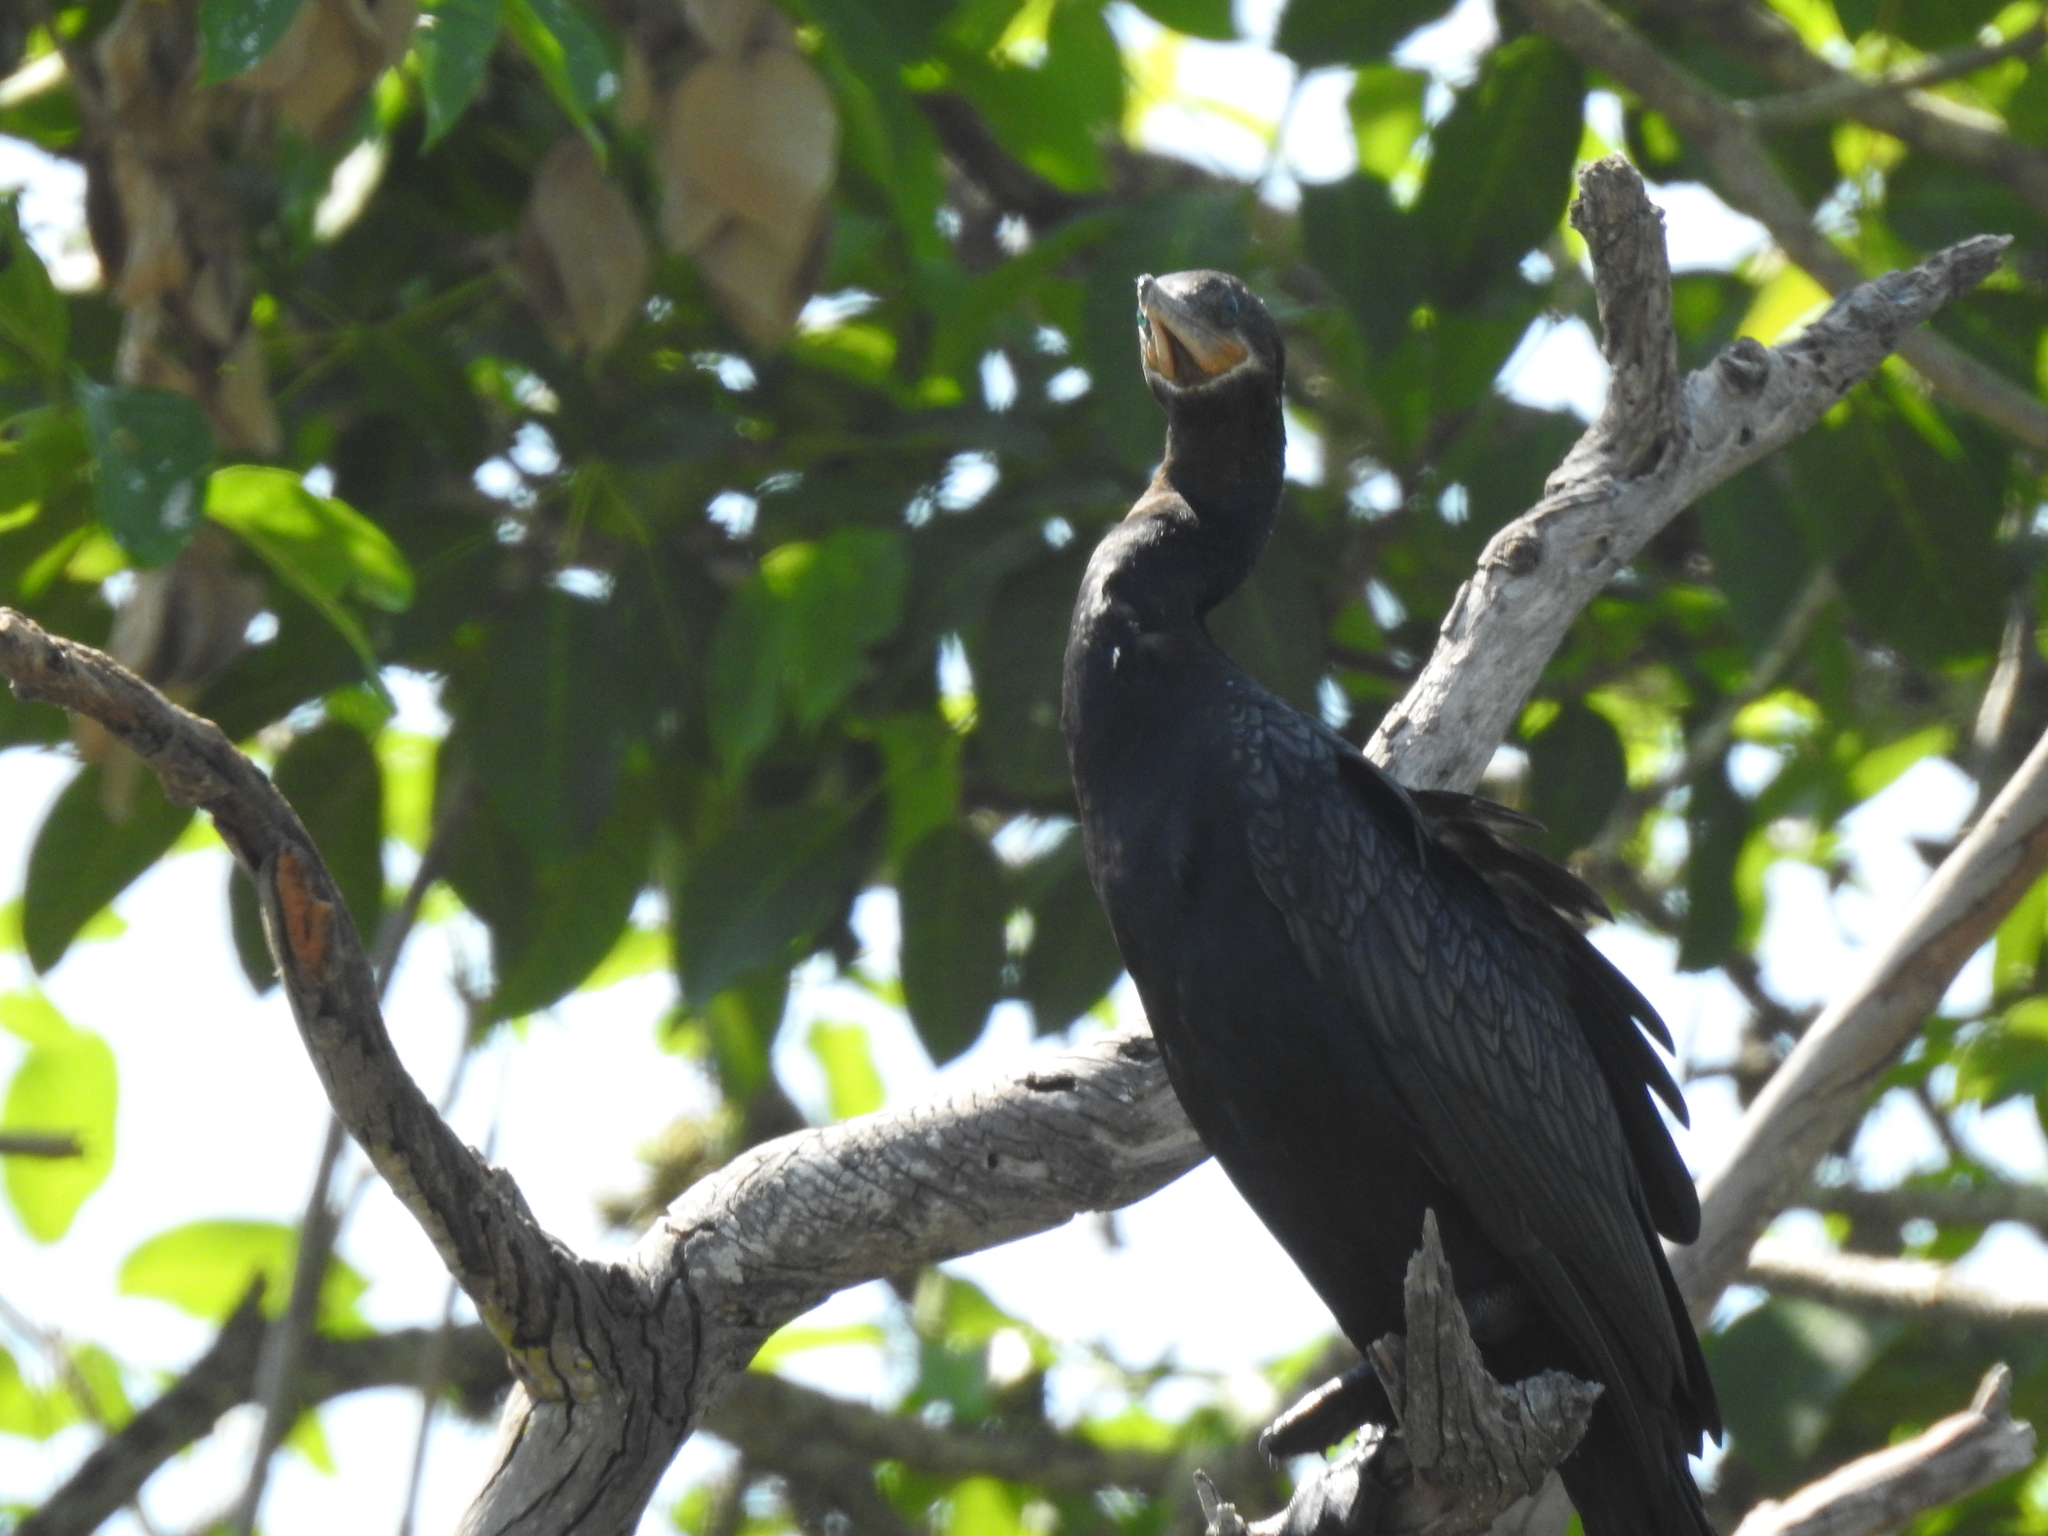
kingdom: Animalia
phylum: Chordata
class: Aves
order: Suliformes
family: Phalacrocoracidae
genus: Phalacrocorax
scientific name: Phalacrocorax brasilianus
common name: Neotropic cormorant
